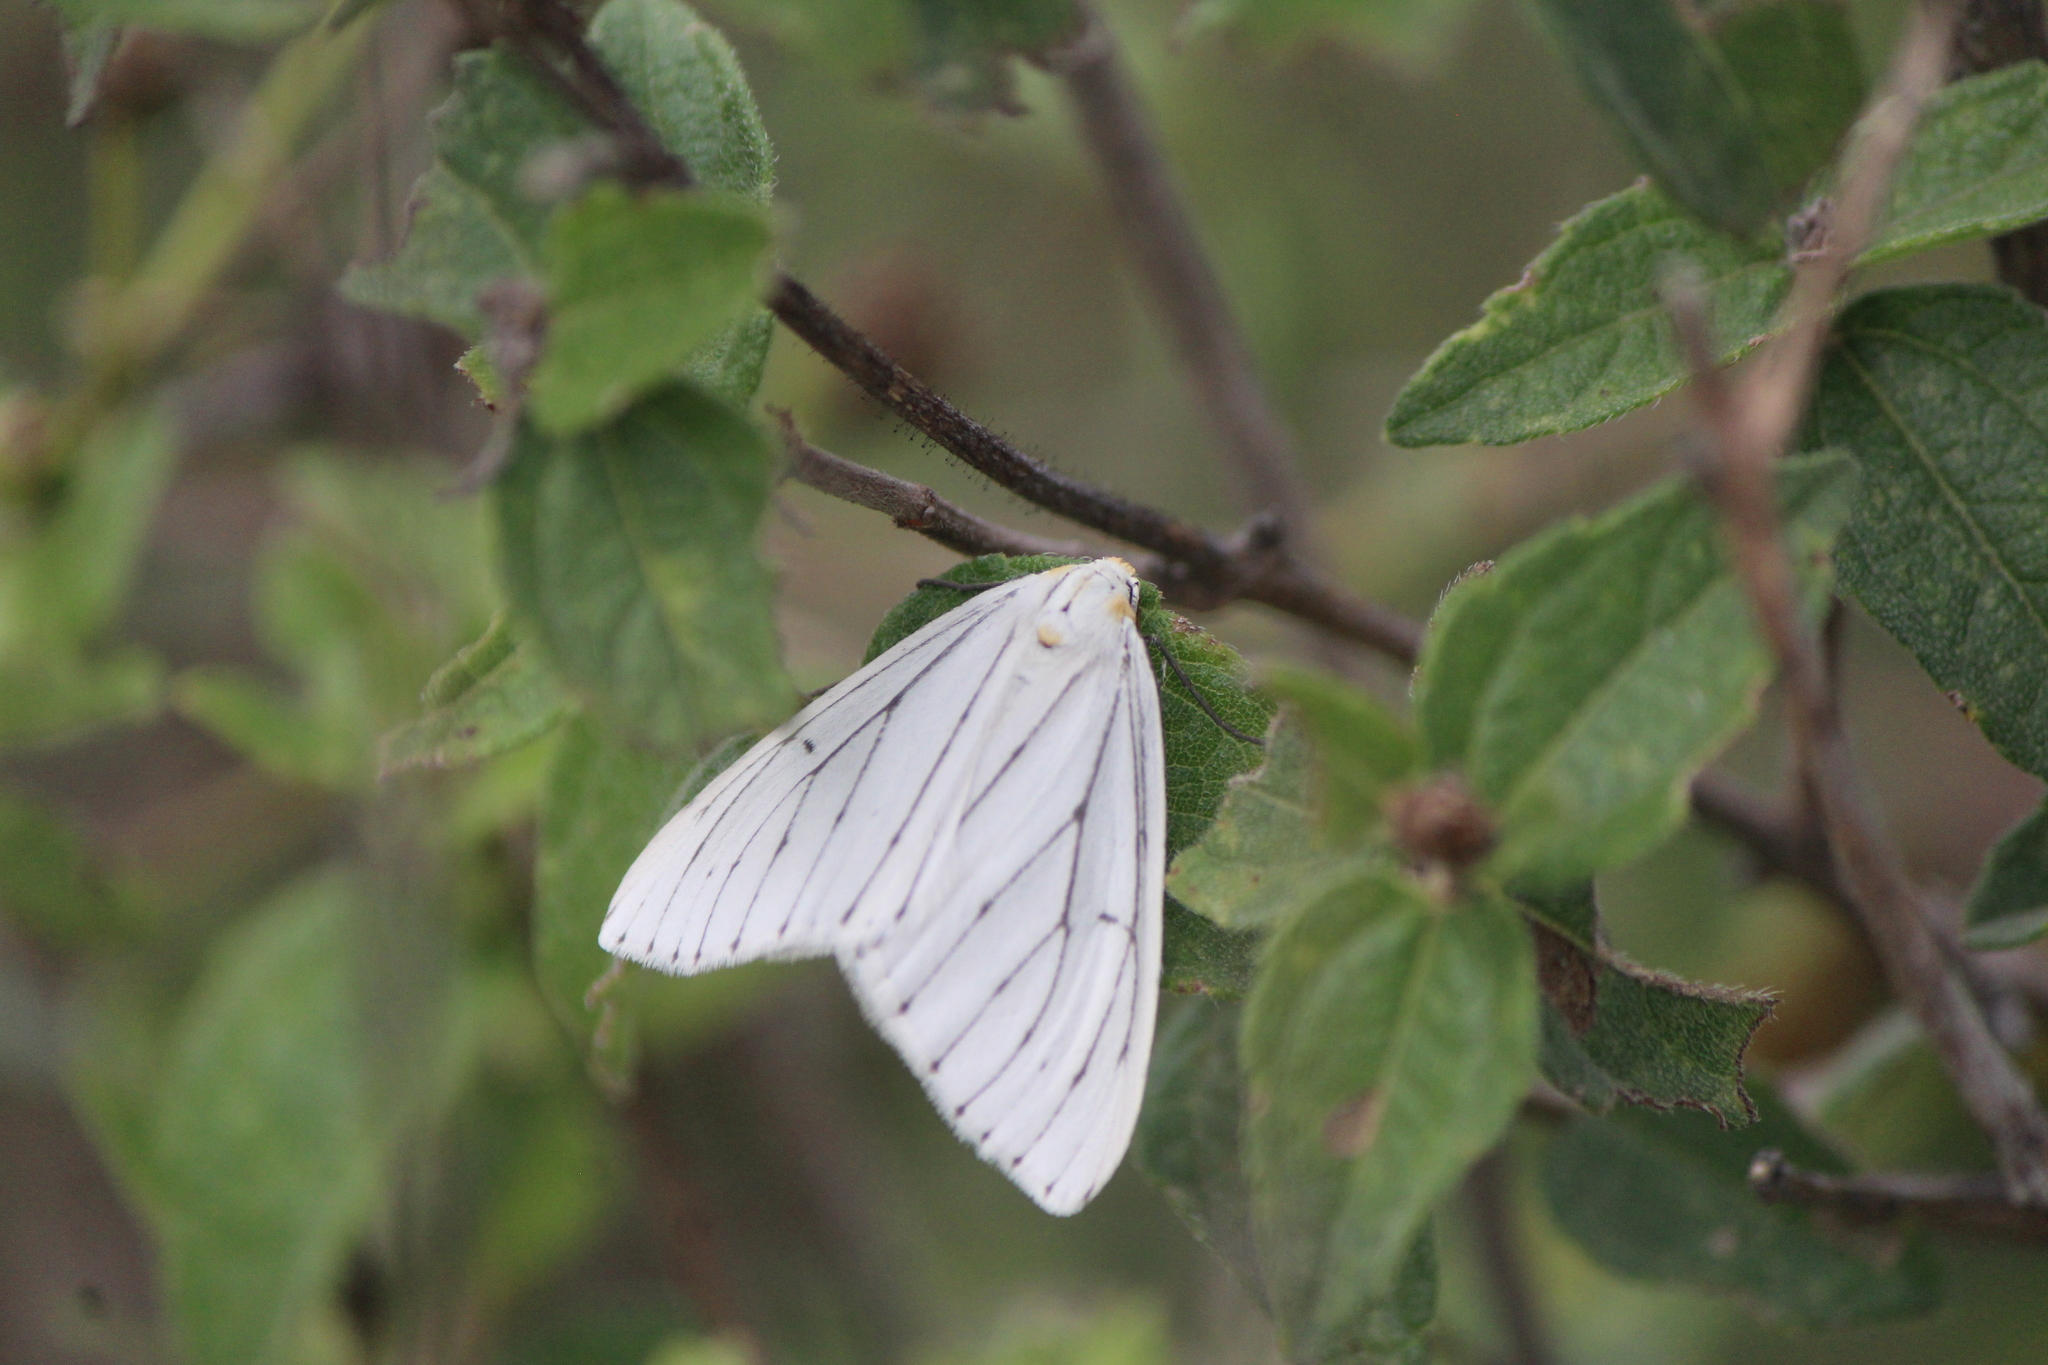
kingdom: Animalia
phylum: Arthropoda
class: Insecta
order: Lepidoptera
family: Geometridae
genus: Neuromelia
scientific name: Neuromelia selectata
